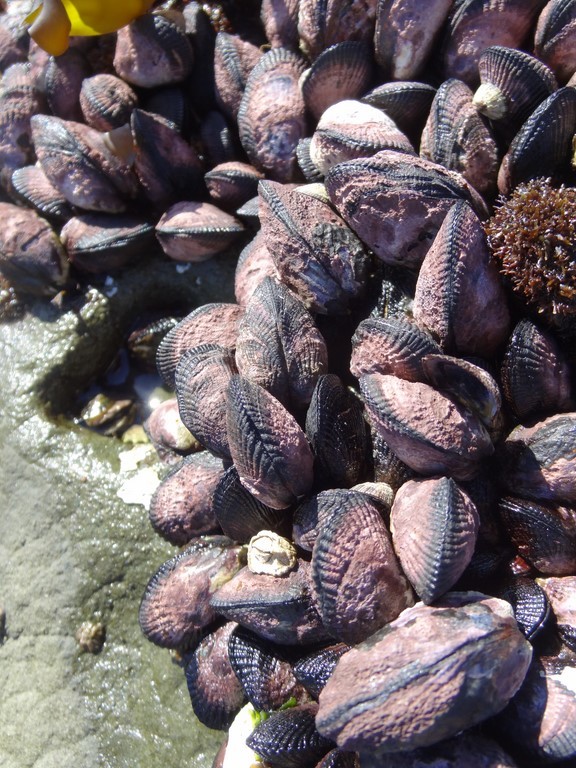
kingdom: Animalia
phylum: Mollusca
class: Bivalvia
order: Mytilida
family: Mytilidae
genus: Perumytilus
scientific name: Perumytilus purpuratus
